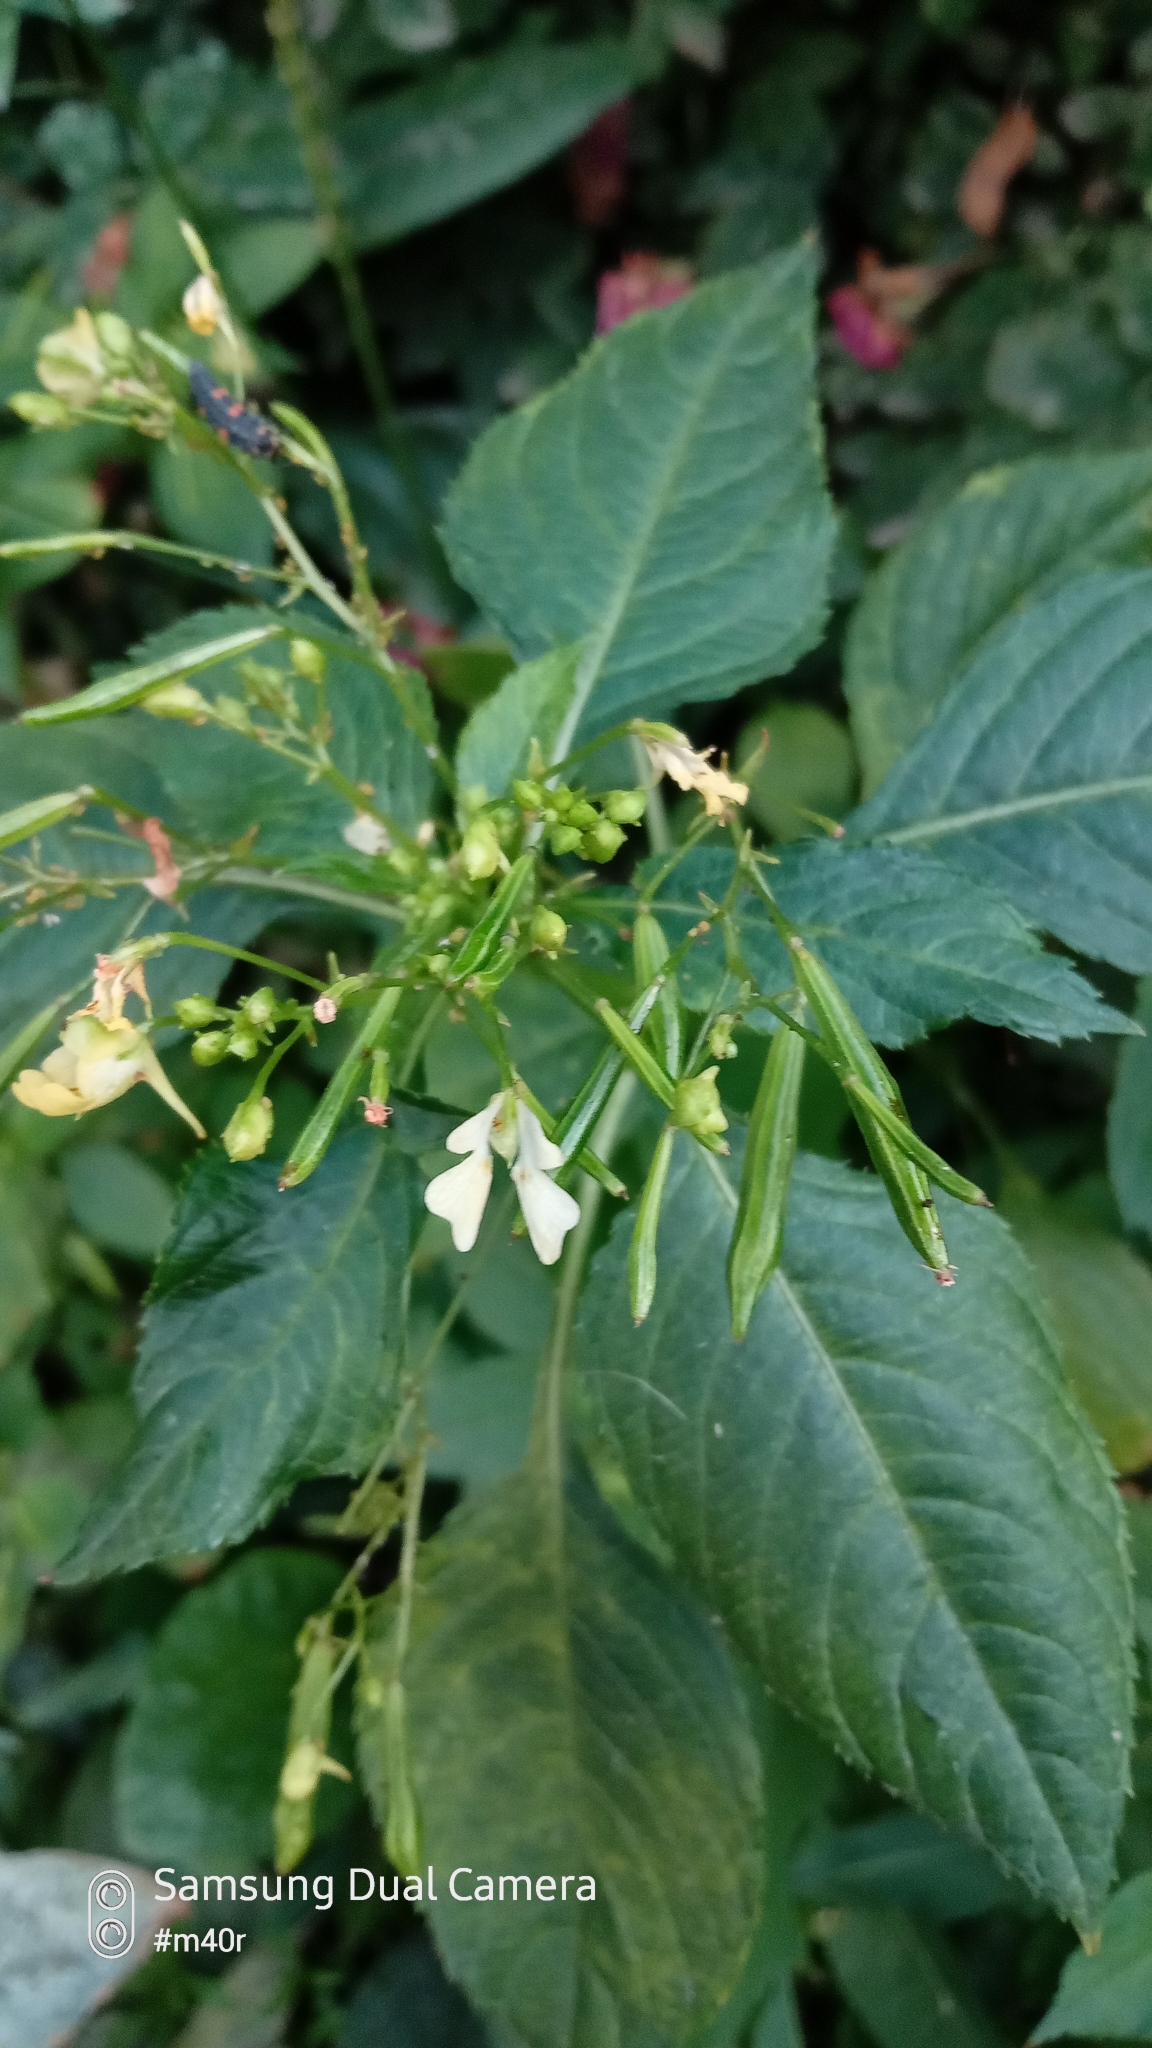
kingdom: Plantae
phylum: Tracheophyta
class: Magnoliopsida
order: Ericales
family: Balsaminaceae
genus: Impatiens
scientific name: Impatiens parviflora
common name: Small balsam
